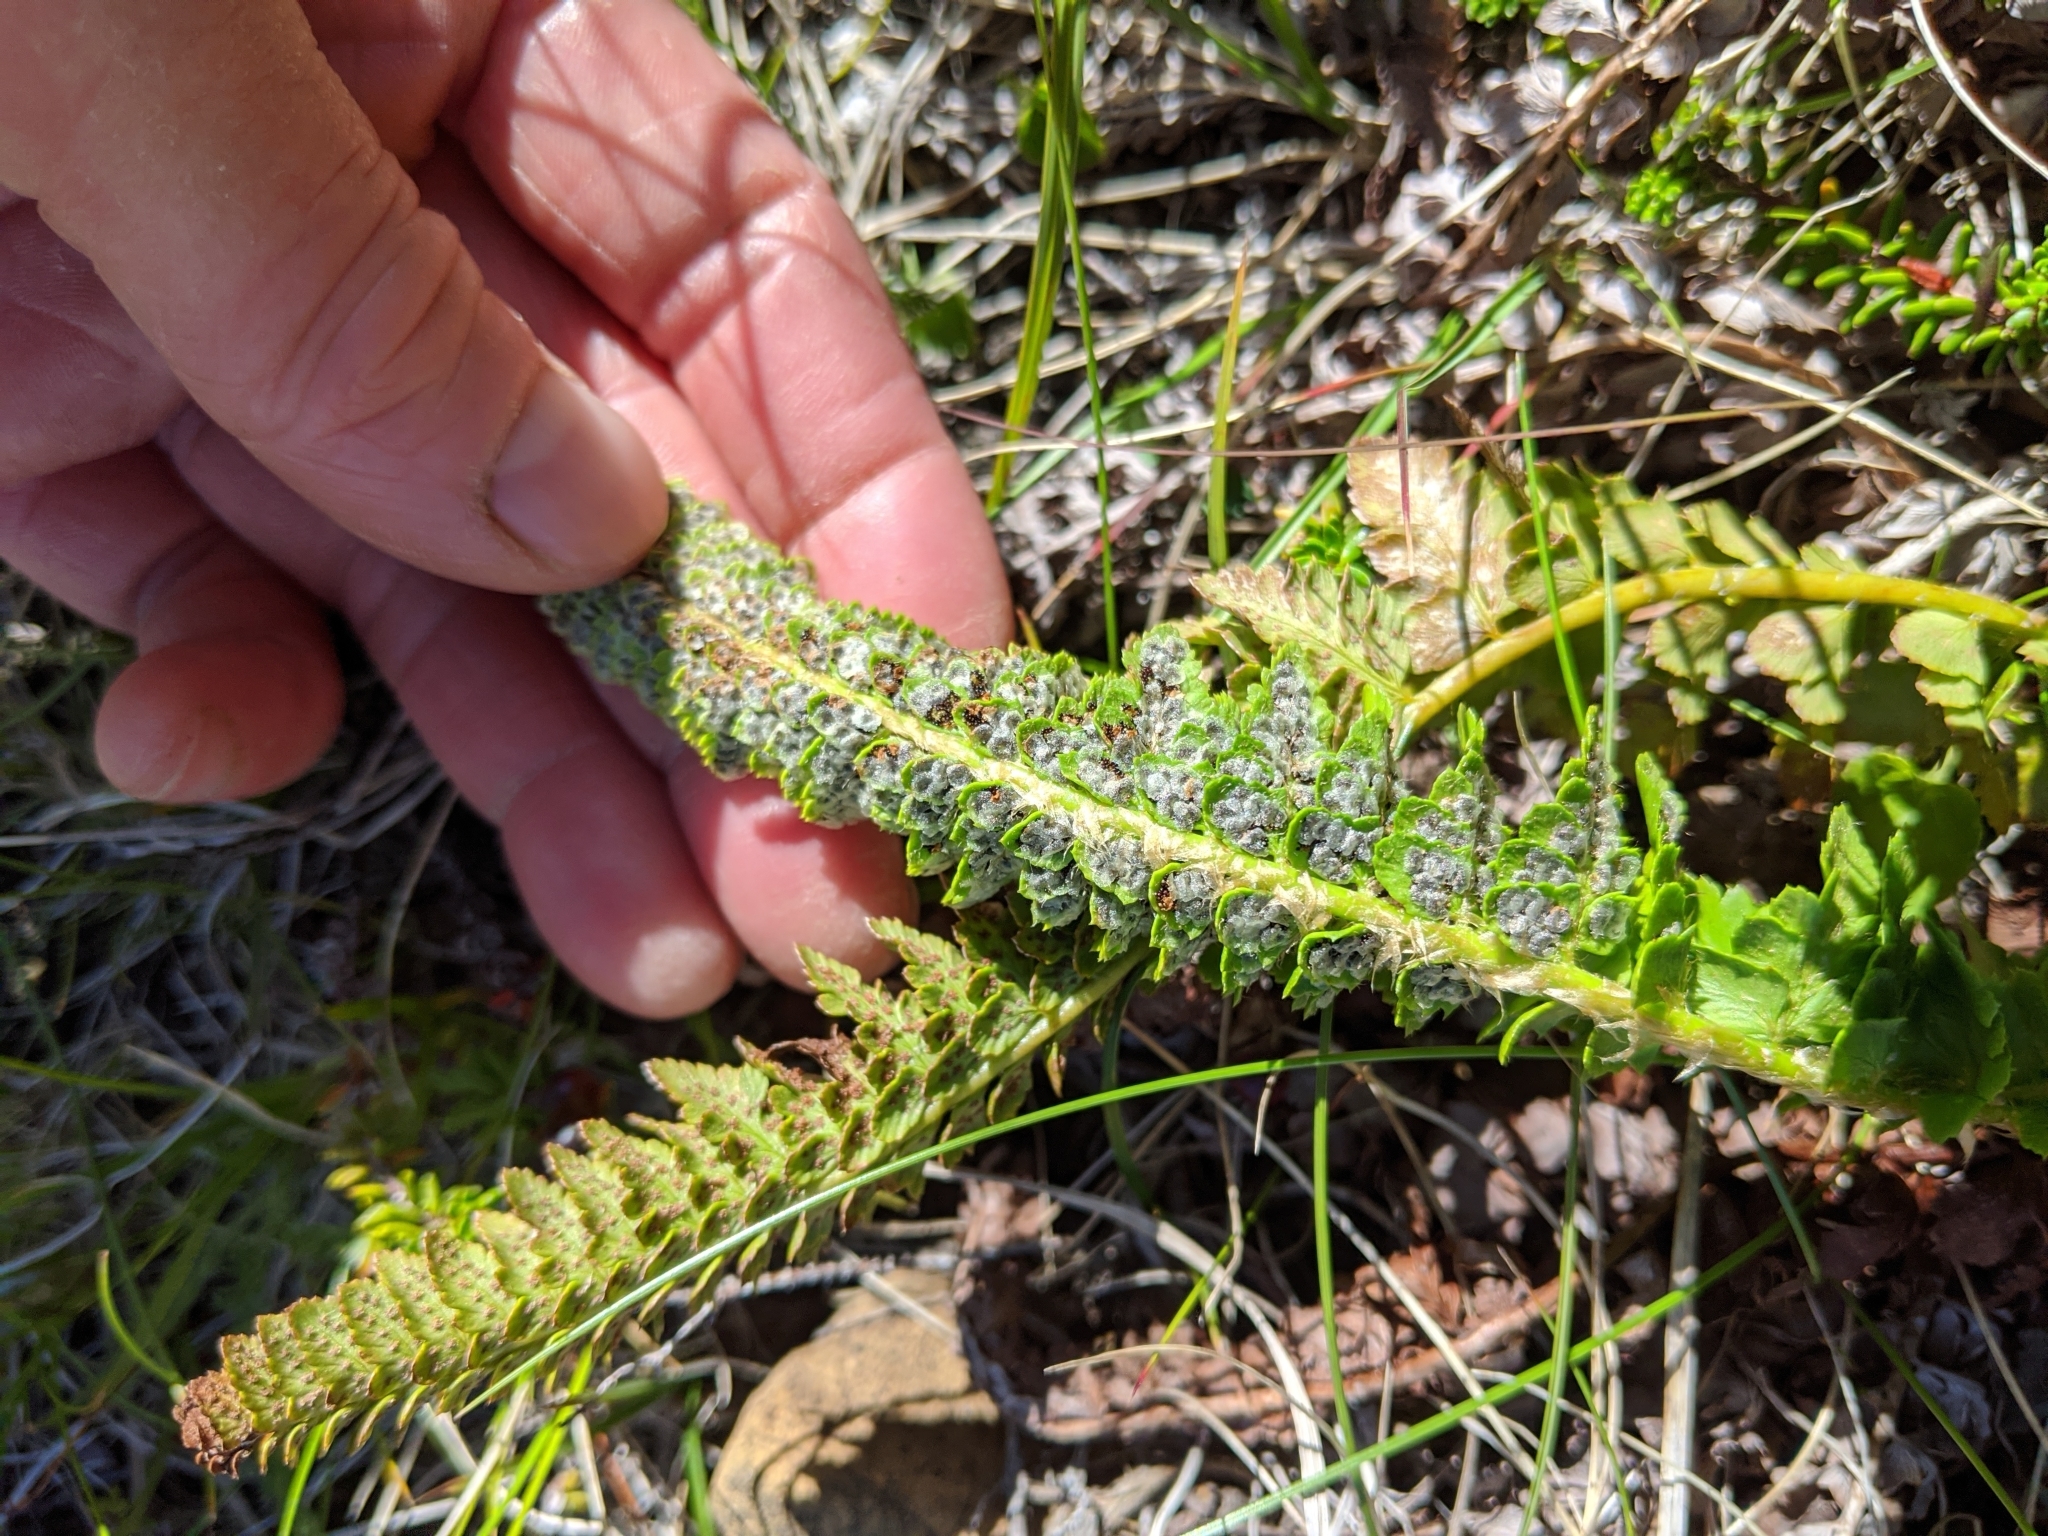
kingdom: Plantae
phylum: Tracheophyta
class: Polypodiopsida
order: Polypodiales
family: Dryopteridaceae
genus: Polystichum
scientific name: Polystichum kruckebergii
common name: Kruckeberg's holly fern
